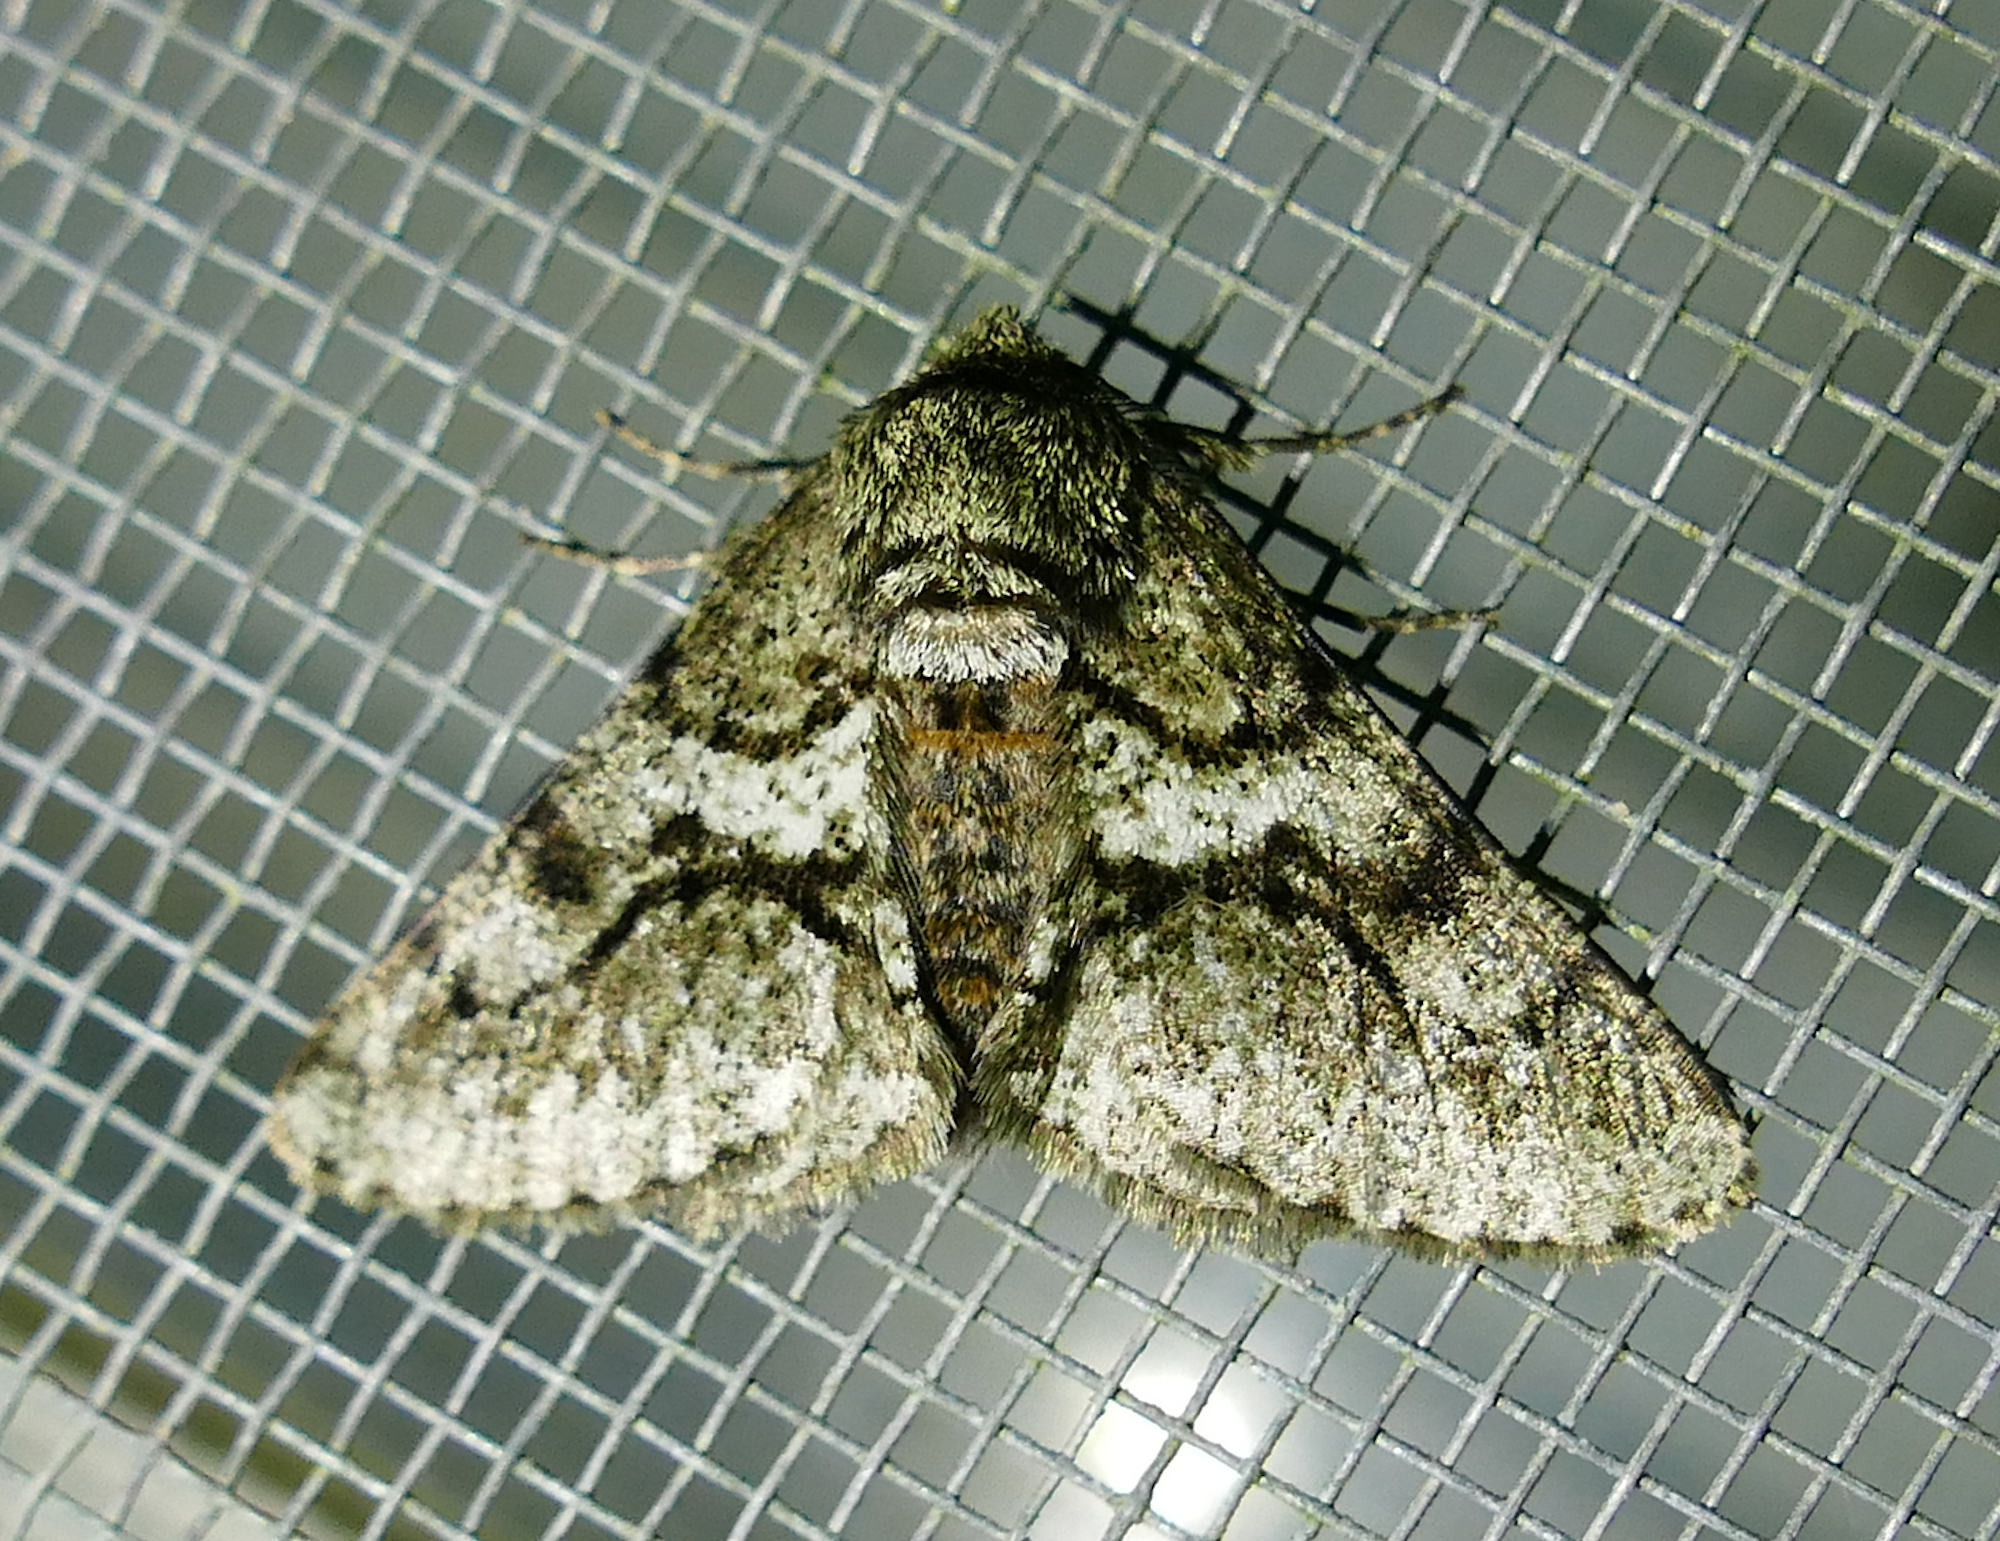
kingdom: Animalia
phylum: Arthropoda
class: Insecta
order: Lepidoptera
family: Geometridae
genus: Lycia
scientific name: Lycia ypsilon
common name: Wooly gray
